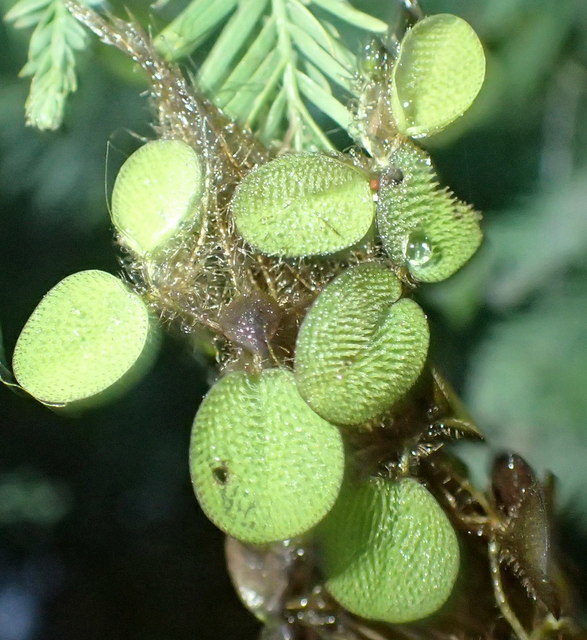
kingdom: Plantae
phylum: Tracheophyta
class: Polypodiopsida
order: Salviniales
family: Salviniaceae
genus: Salvinia
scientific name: Salvinia minima
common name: Water spangles
